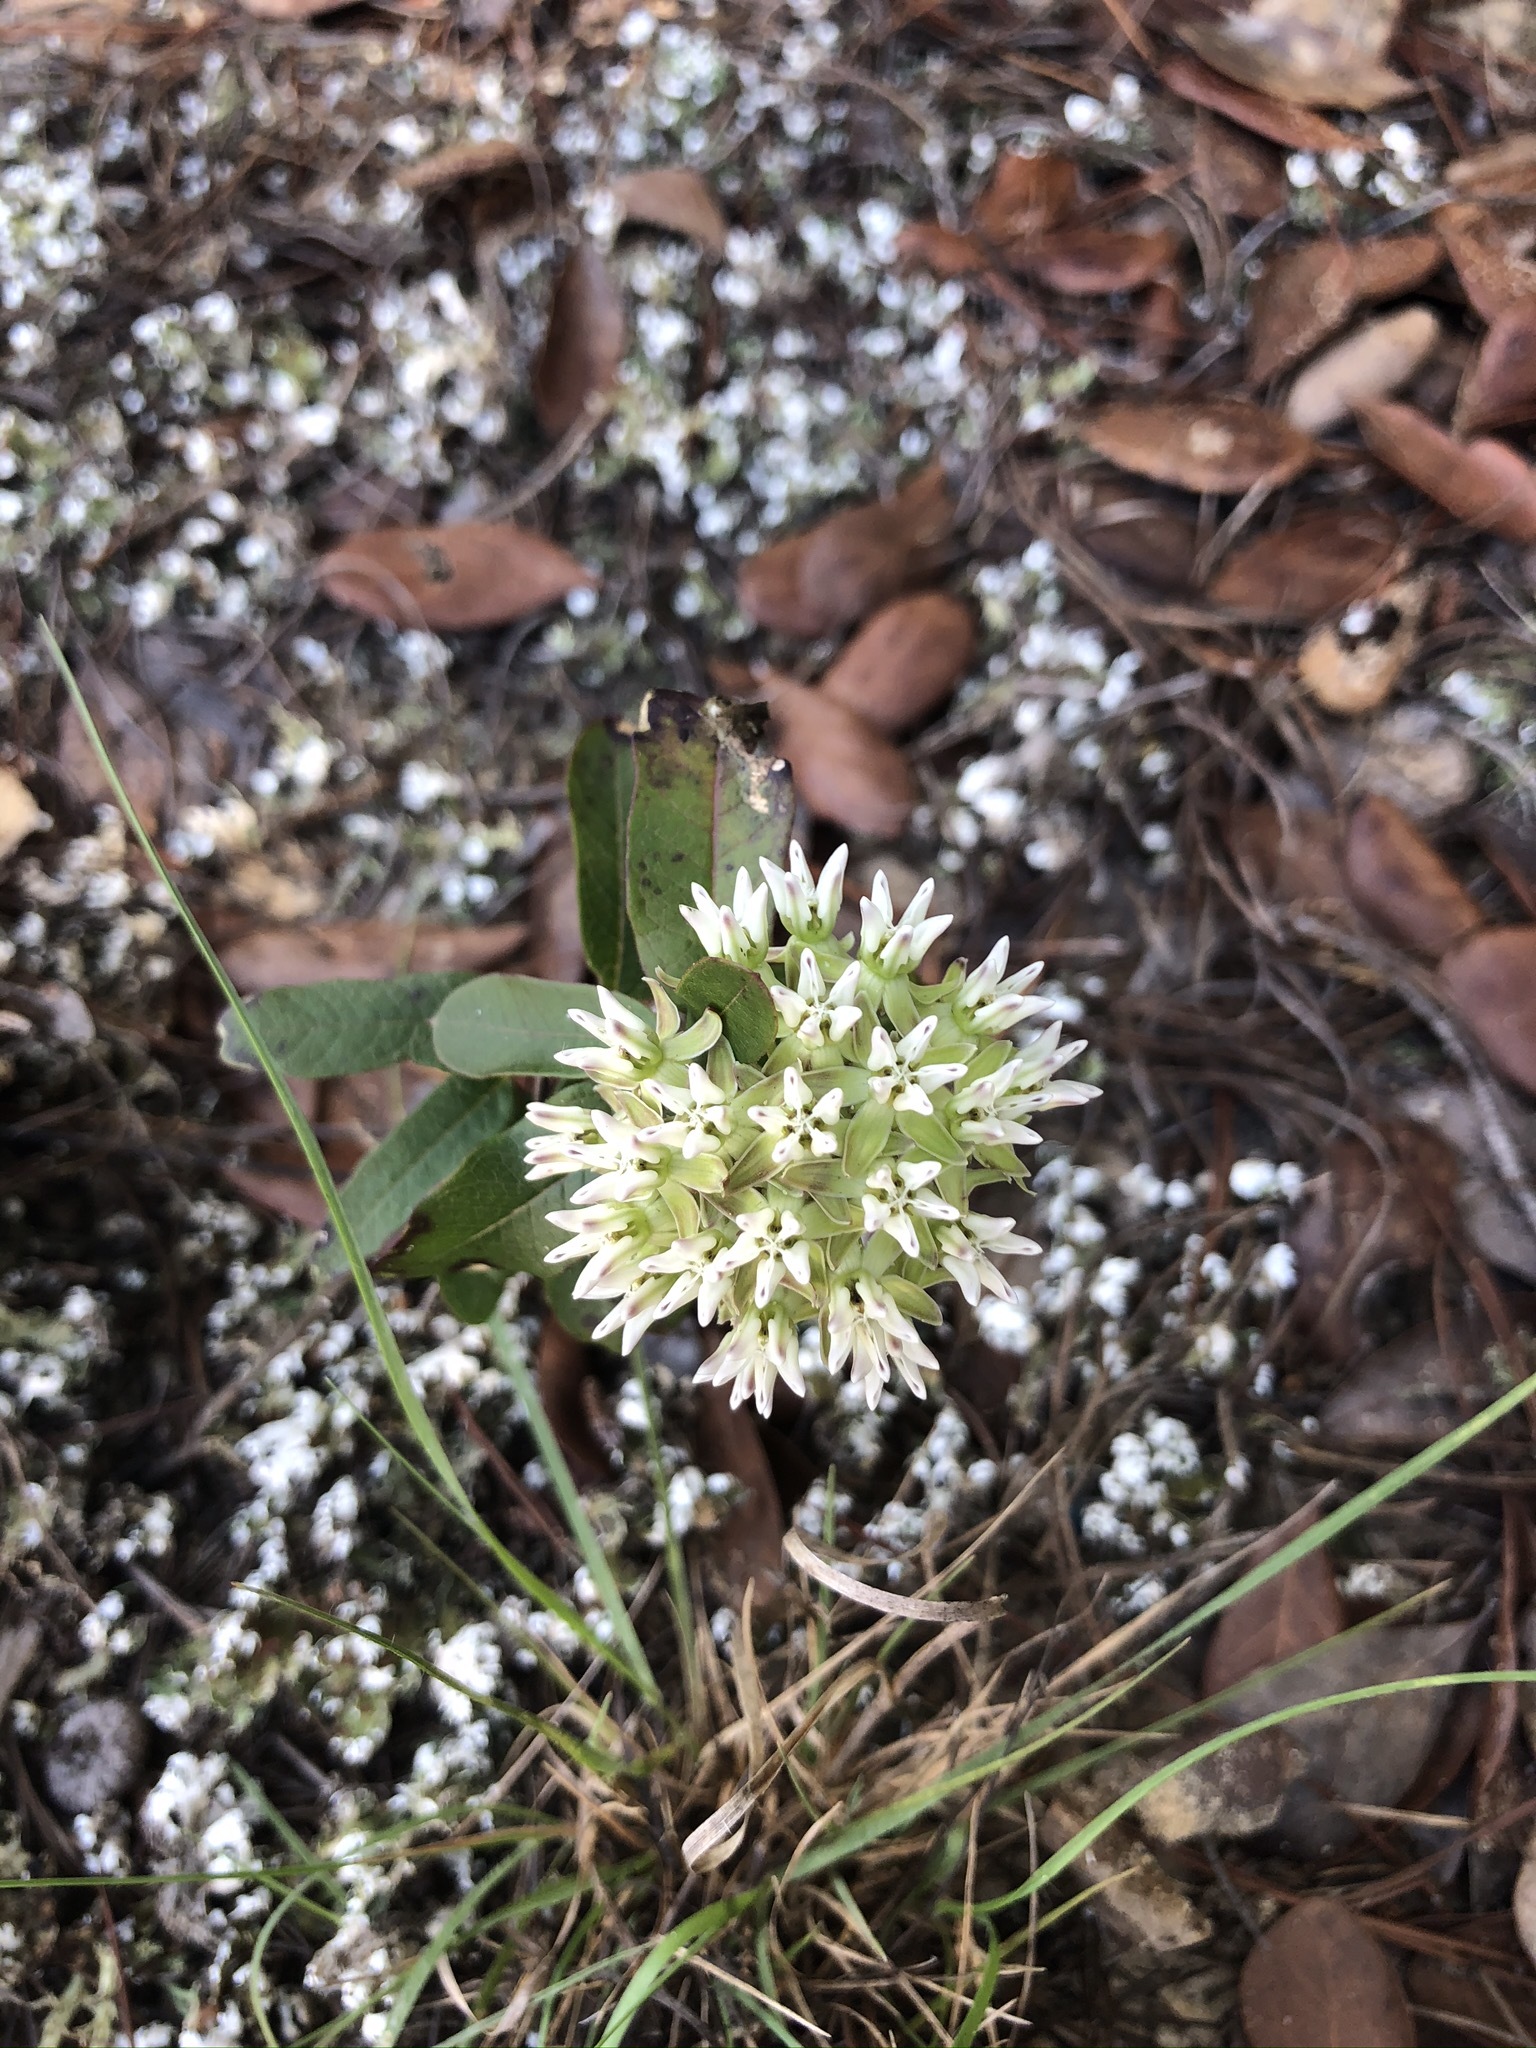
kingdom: Plantae
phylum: Tracheophyta
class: Magnoliopsida
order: Gentianales
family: Apocynaceae
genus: Asclepias
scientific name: Asclepias curtissii
